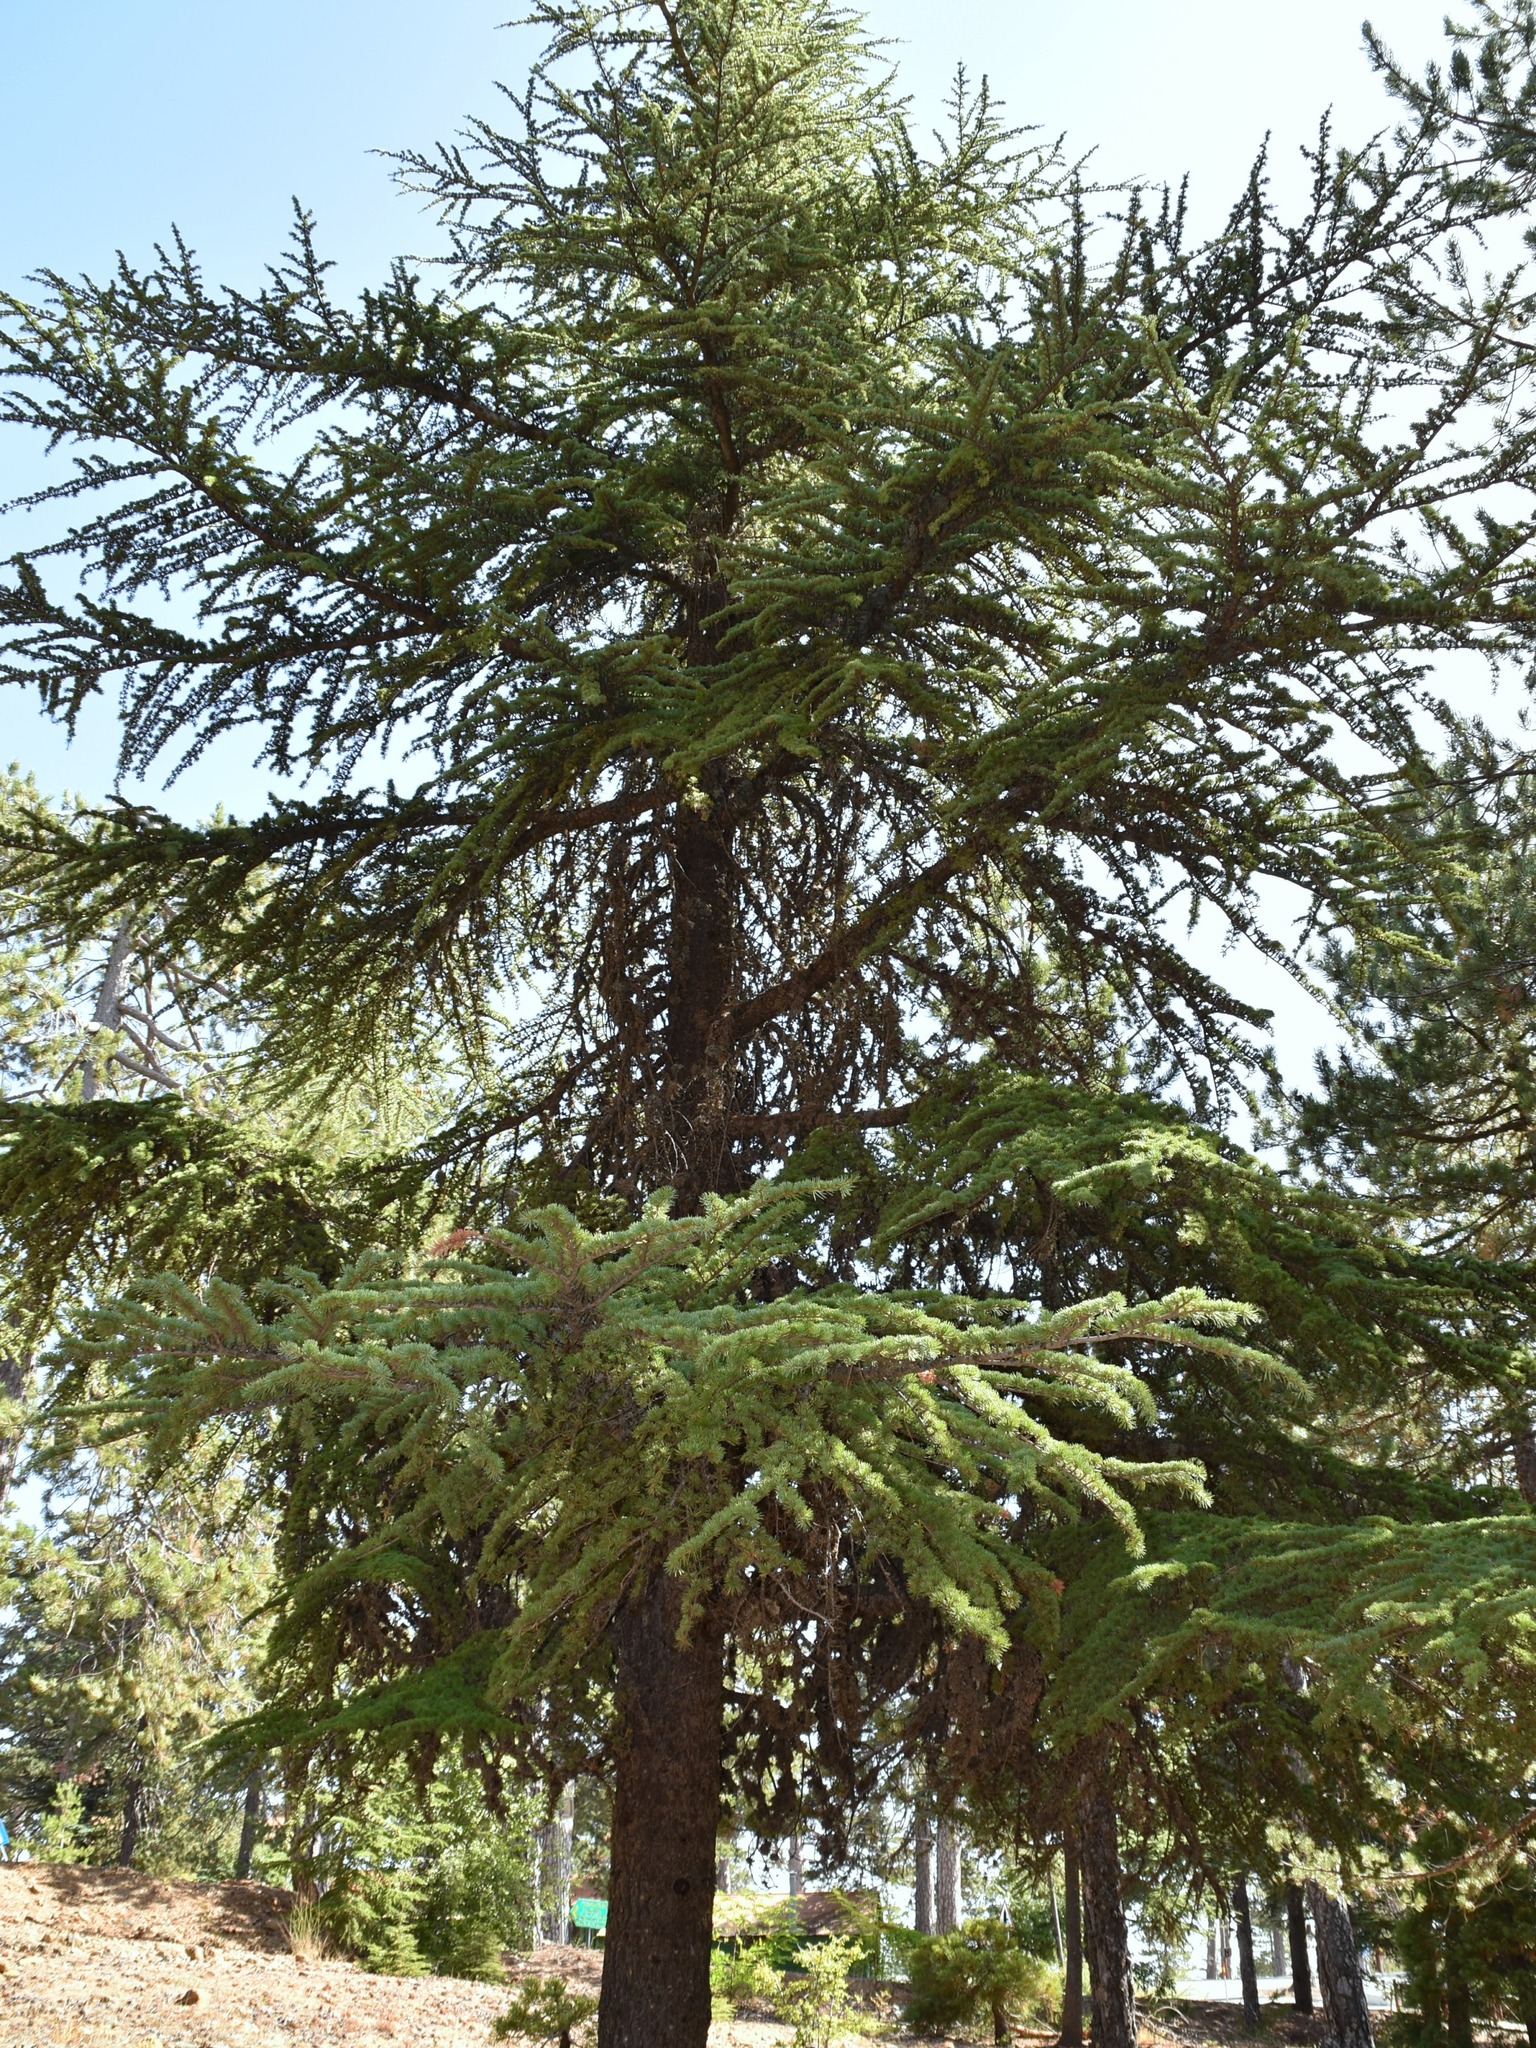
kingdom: Plantae
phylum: Tracheophyta
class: Pinopsida
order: Pinales
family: Pinaceae
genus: Cedrus
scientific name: Cedrus brevifolia
